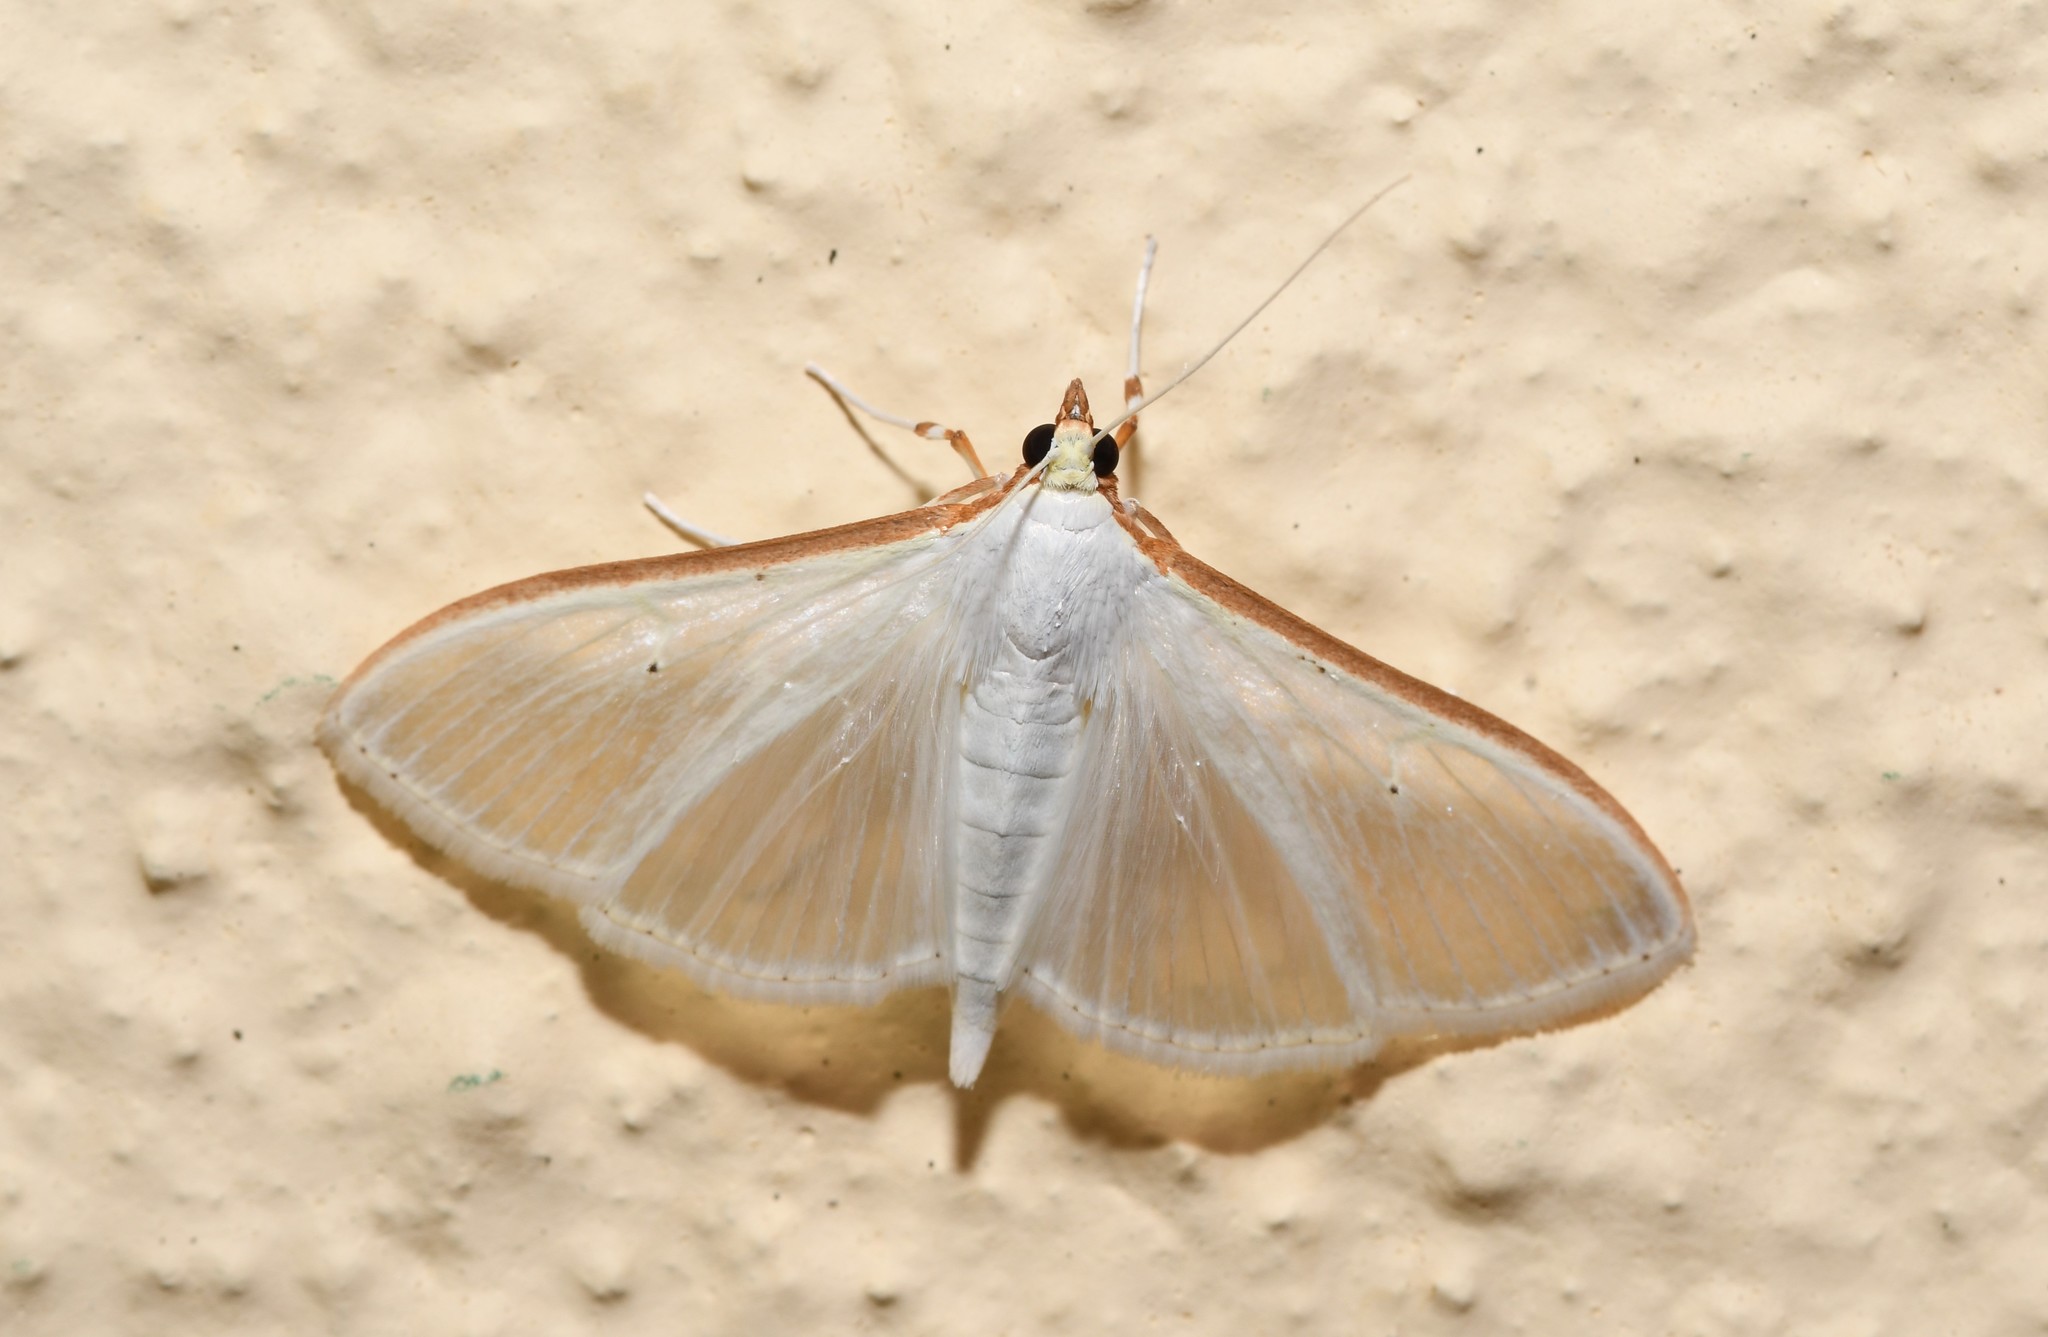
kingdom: Animalia
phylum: Arthropoda
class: Insecta
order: Lepidoptera
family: Crambidae
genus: Palpita
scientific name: Palpita vitrealis
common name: Olive-tree pearl
